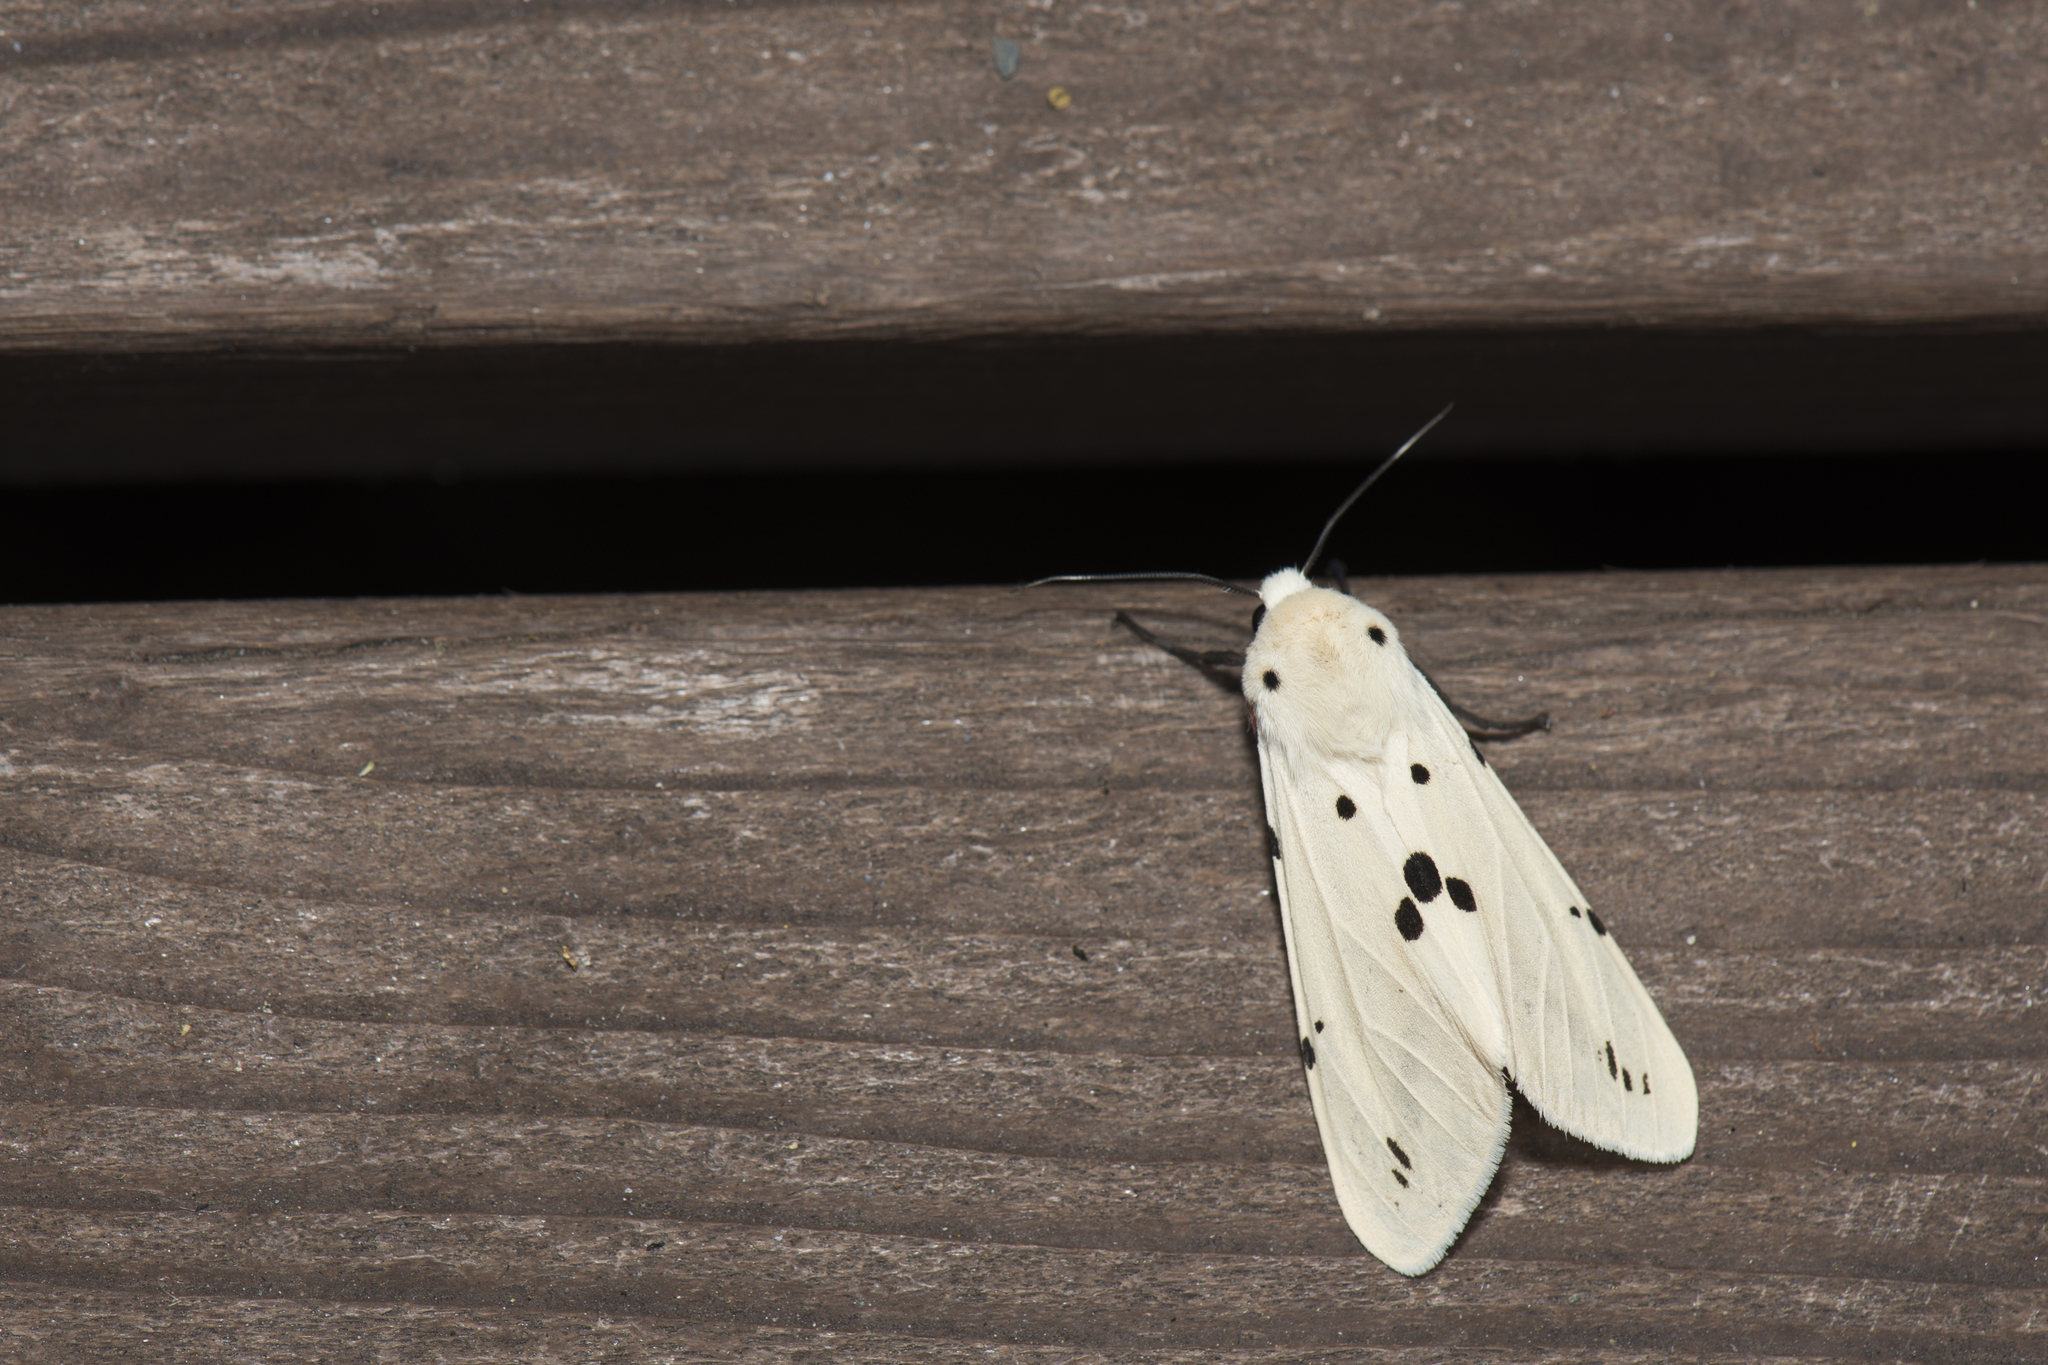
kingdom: Animalia
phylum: Arthropoda
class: Insecta
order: Lepidoptera
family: Erebidae
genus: Spilarctia
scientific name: Spilarctia alba
